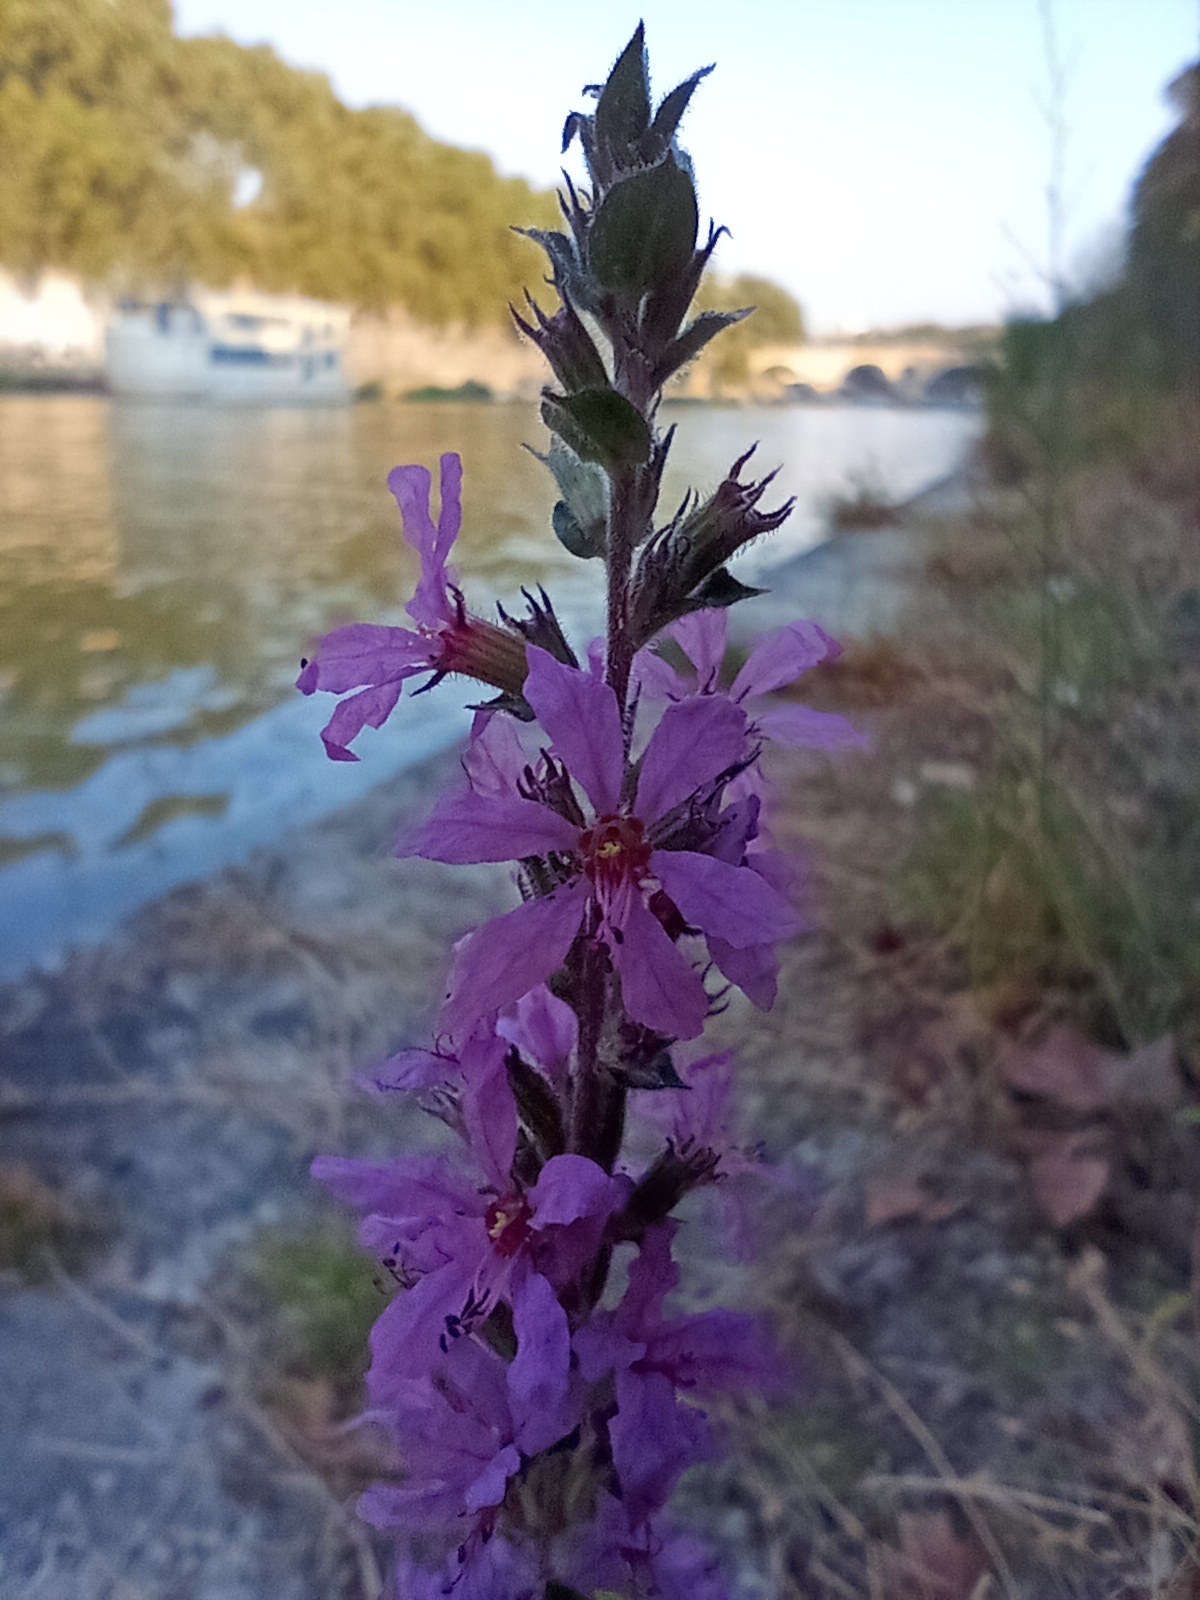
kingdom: Plantae
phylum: Tracheophyta
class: Magnoliopsida
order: Myrtales
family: Lythraceae
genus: Lythrum
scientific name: Lythrum salicaria
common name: Purple loosestrife
